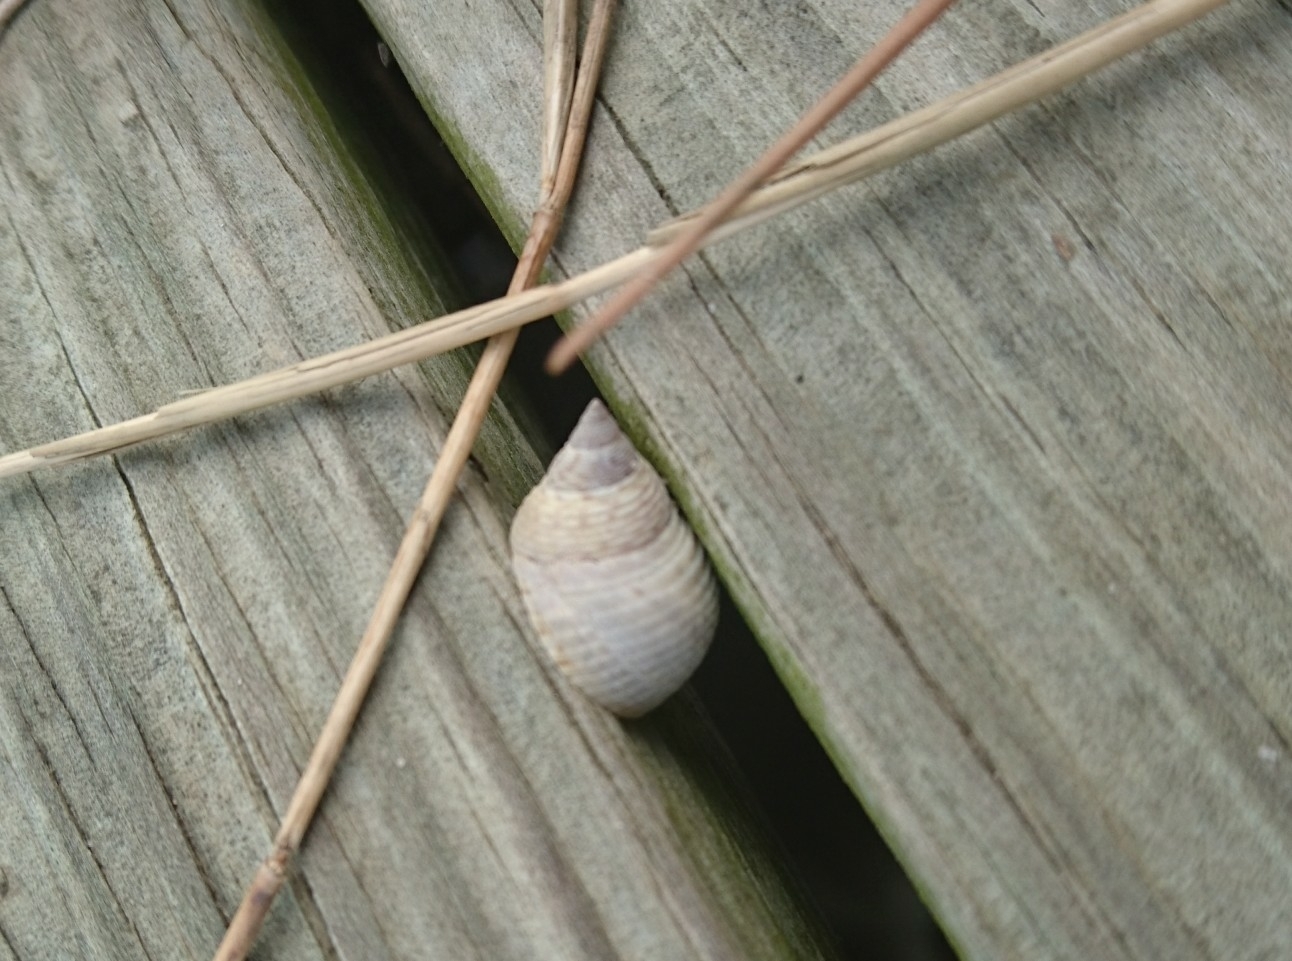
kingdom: Animalia
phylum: Mollusca
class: Gastropoda
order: Littorinimorpha
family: Littorinidae
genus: Littoraria
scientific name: Littoraria irrorata
